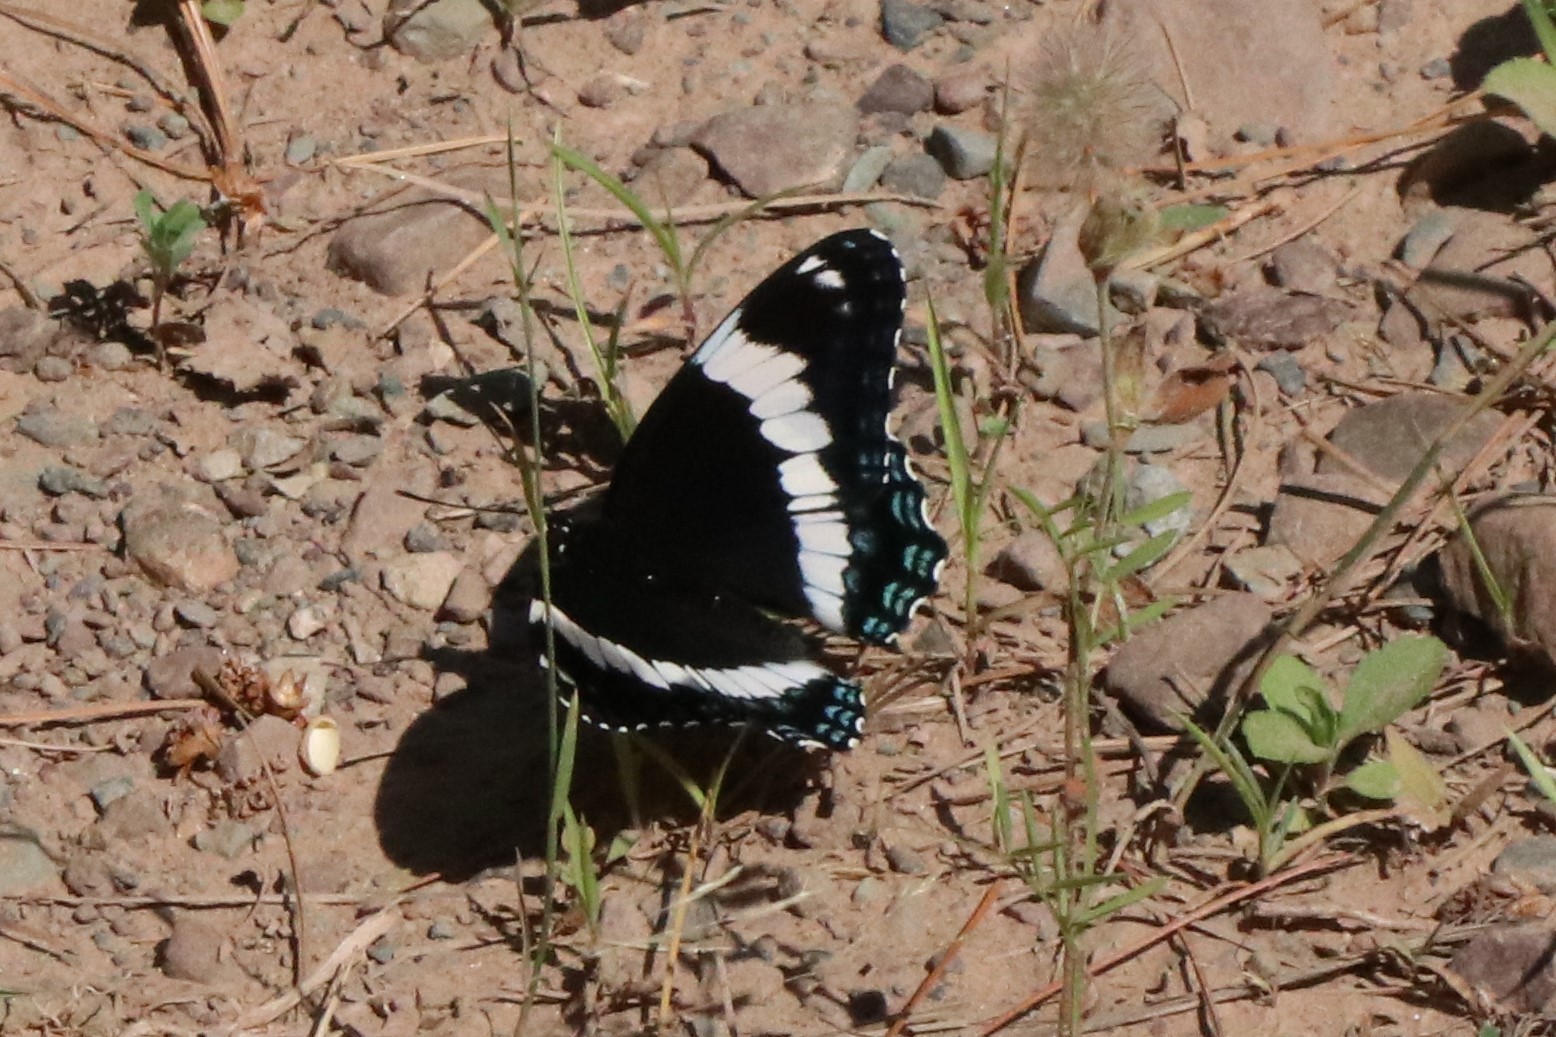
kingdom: Animalia
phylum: Arthropoda
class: Insecta
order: Lepidoptera
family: Nymphalidae
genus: Limenitis
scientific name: Limenitis arthemis
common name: Red-spotted admiral
